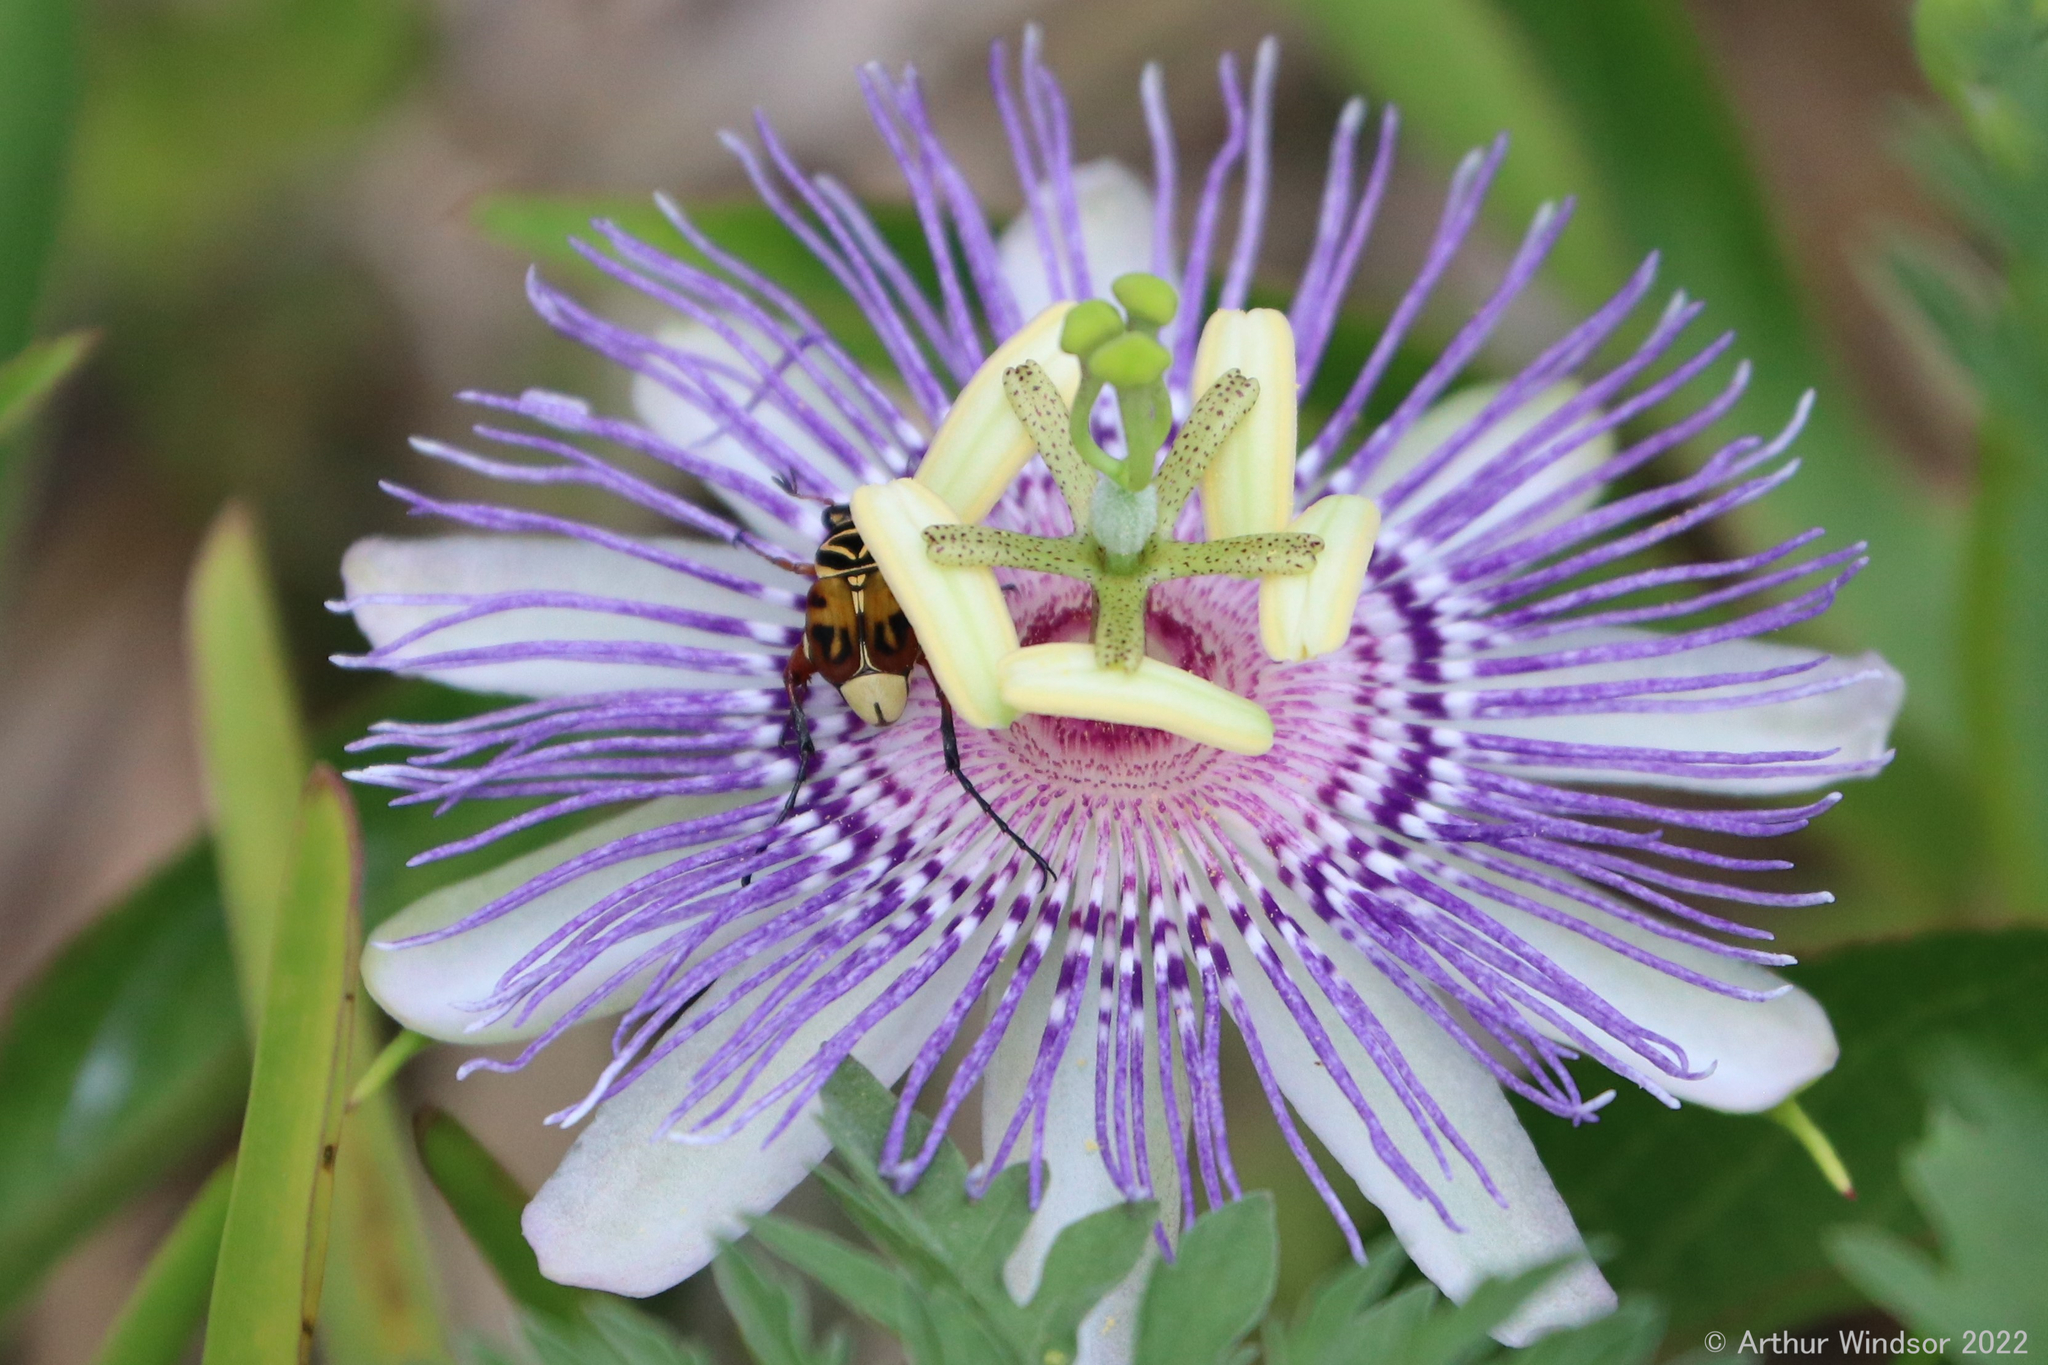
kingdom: Animalia
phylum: Arthropoda
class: Insecta
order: Coleoptera
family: Scarabaeidae
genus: Trigonopeltastes
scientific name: Trigonopeltastes delta
